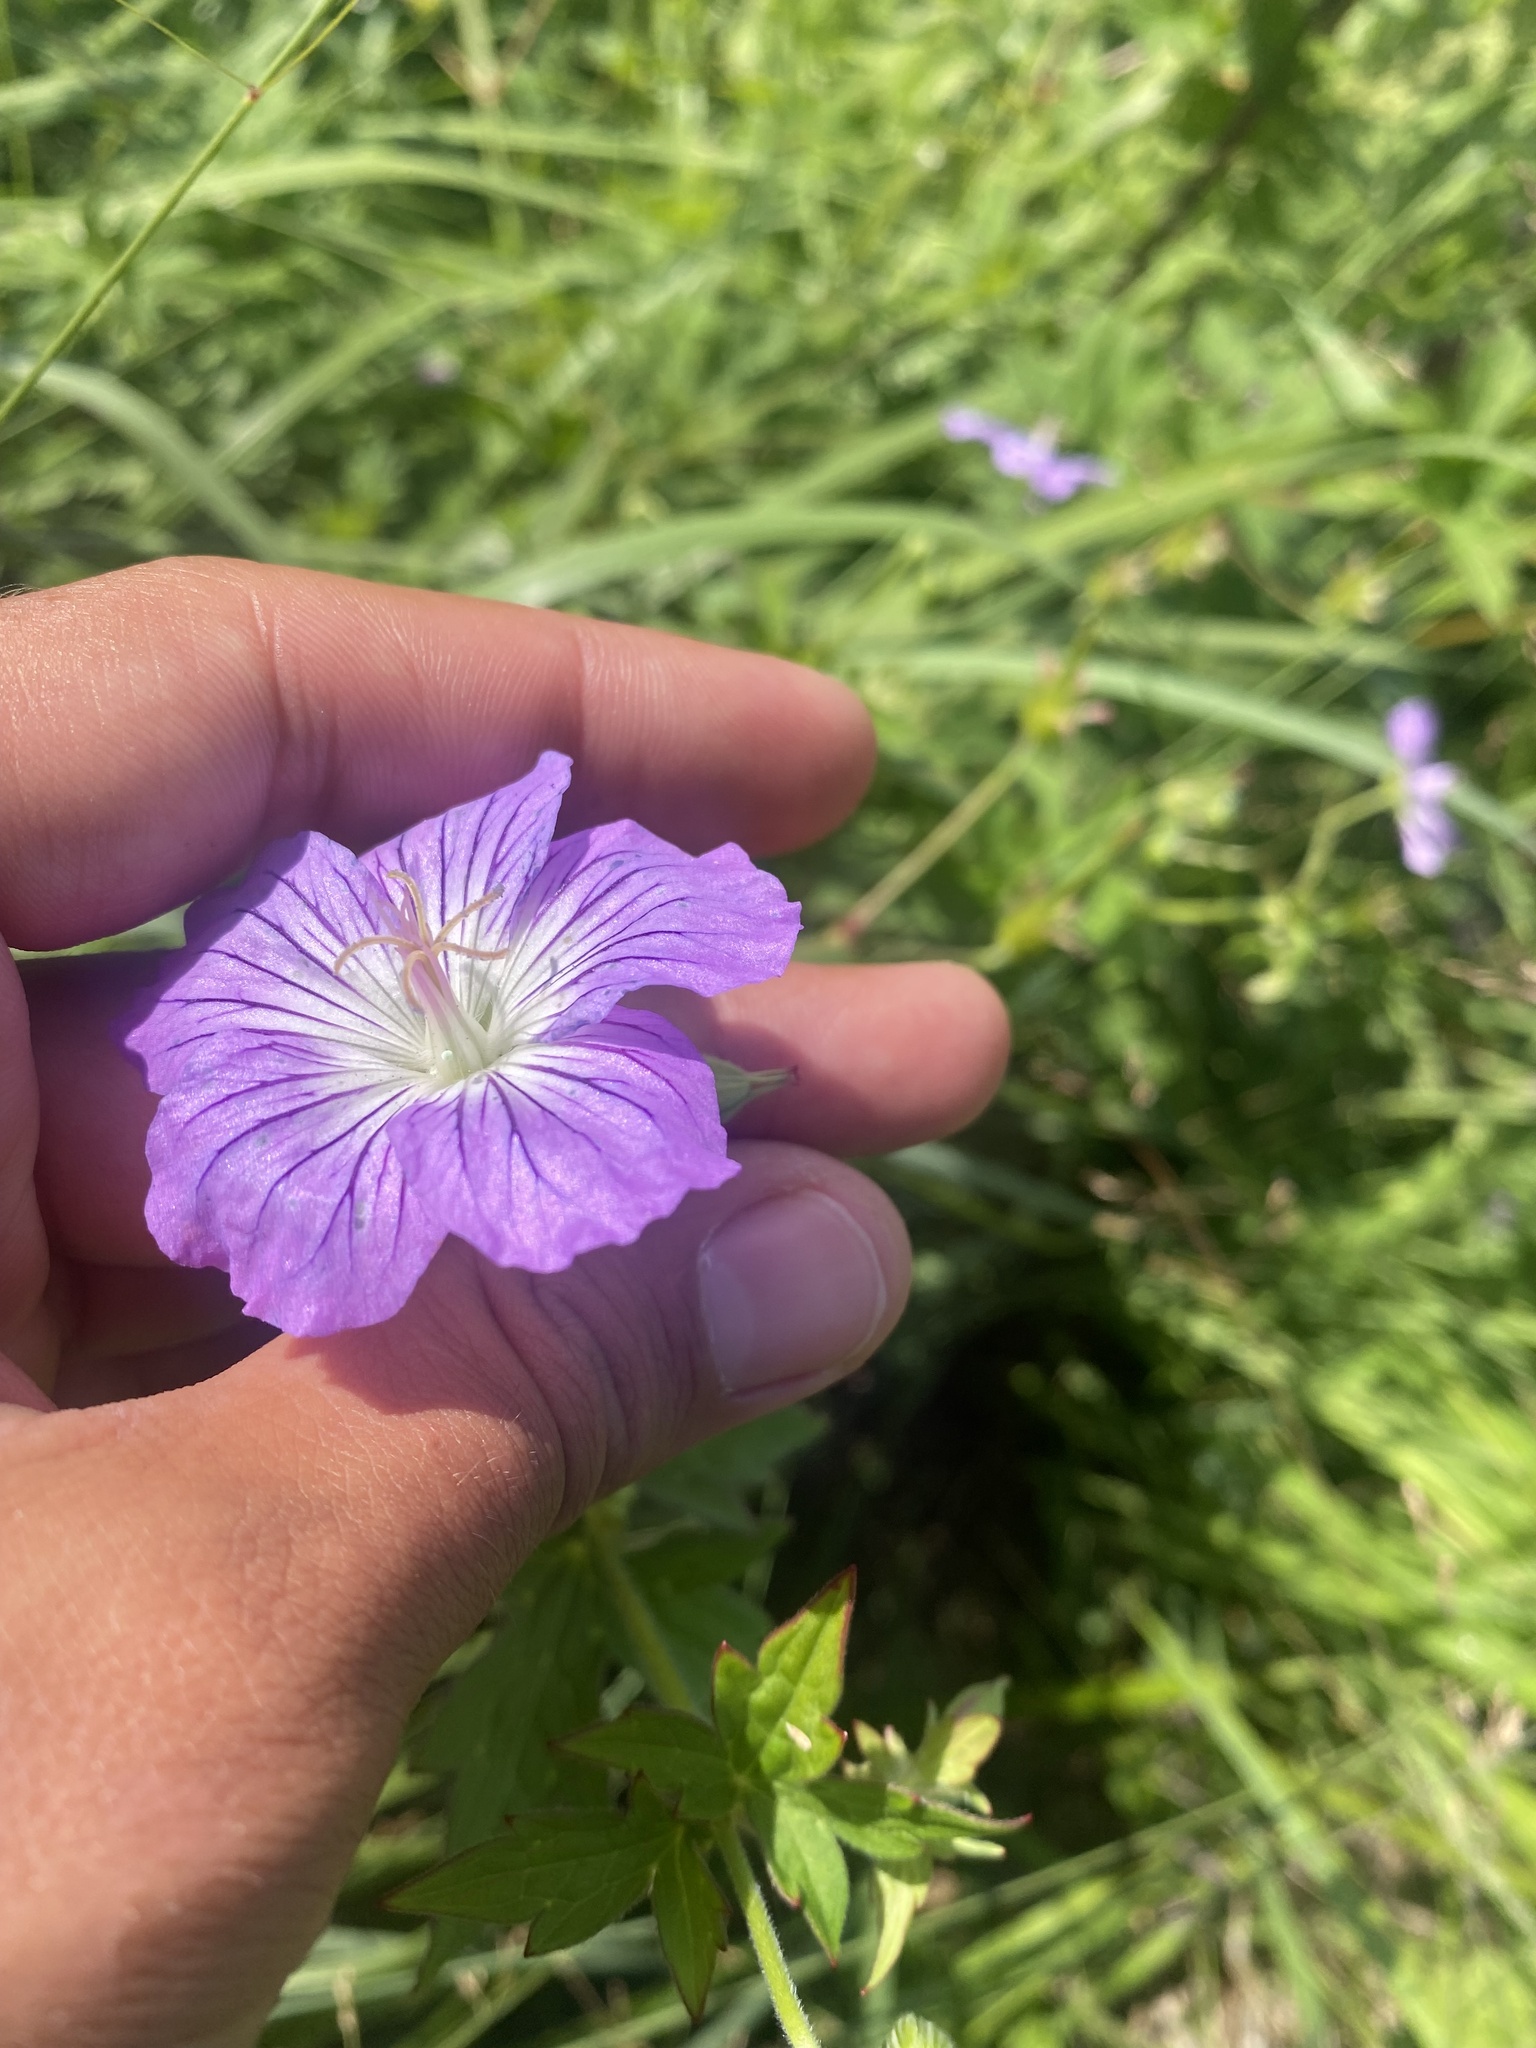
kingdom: Plantae
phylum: Tracheophyta
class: Magnoliopsida
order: Geraniales
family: Geraniaceae
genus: Geranium
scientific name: Geranium wlassovianum
